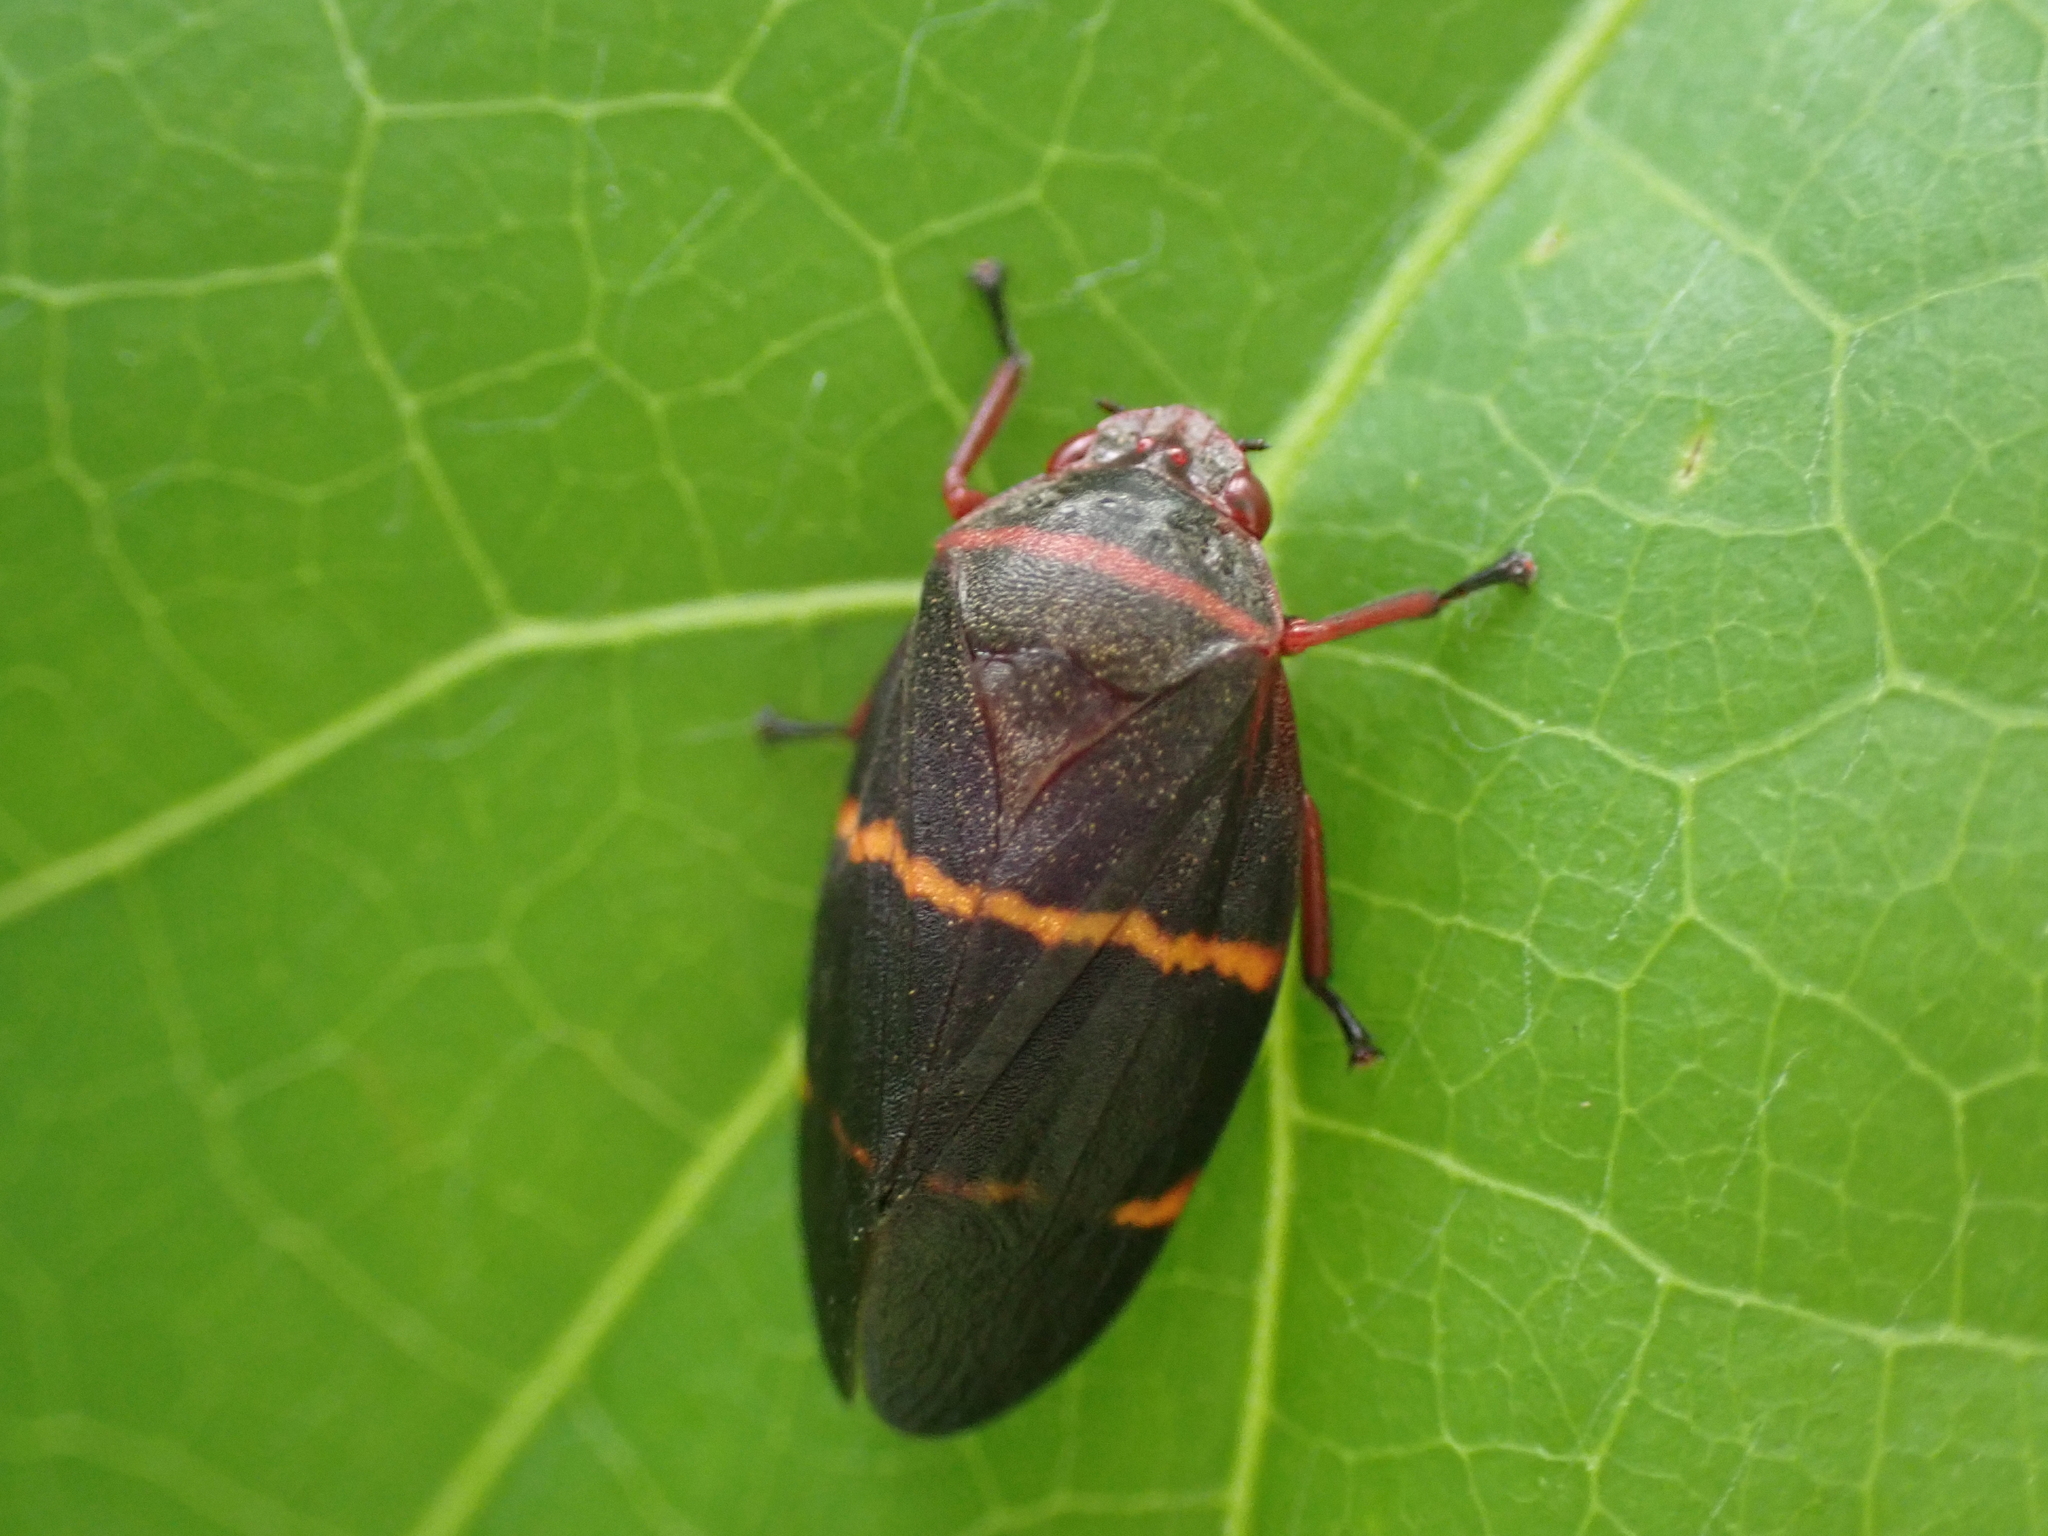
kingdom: Animalia
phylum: Arthropoda
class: Insecta
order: Hemiptera
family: Cercopidae
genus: Prosapia
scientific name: Prosapia bicincta
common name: Twolined spittlebug
